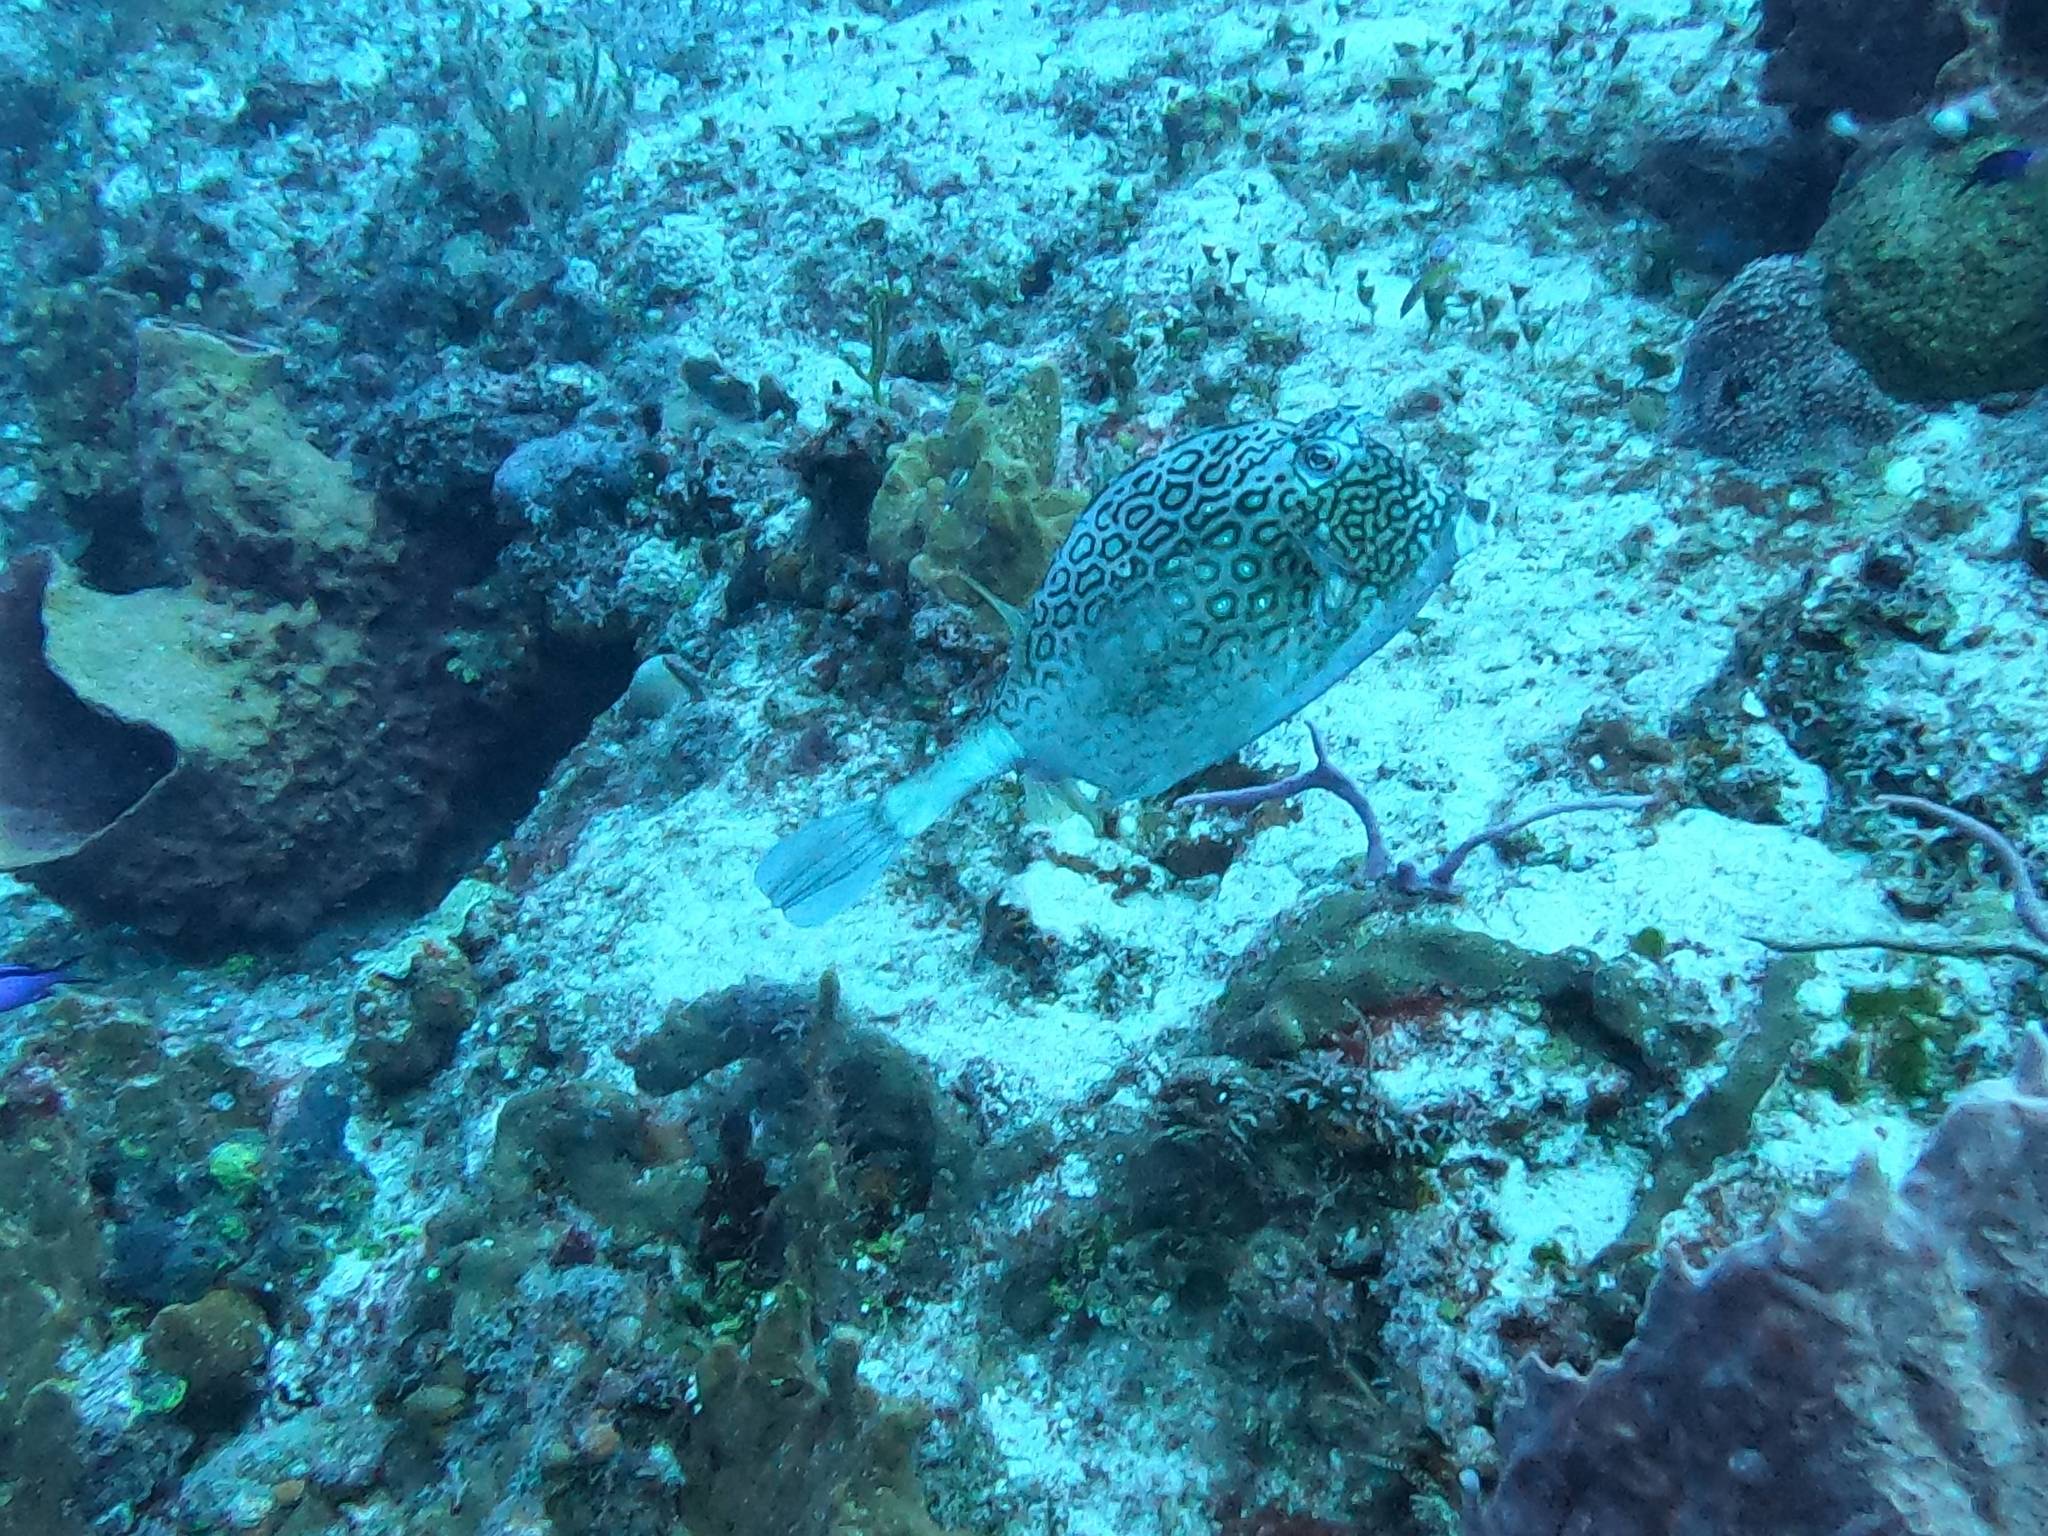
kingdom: Animalia
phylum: Chordata
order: Tetraodontiformes
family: Ostraciidae
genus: Acanthostracion
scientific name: Acanthostracion polygonius
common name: Honeycomb cowfish
